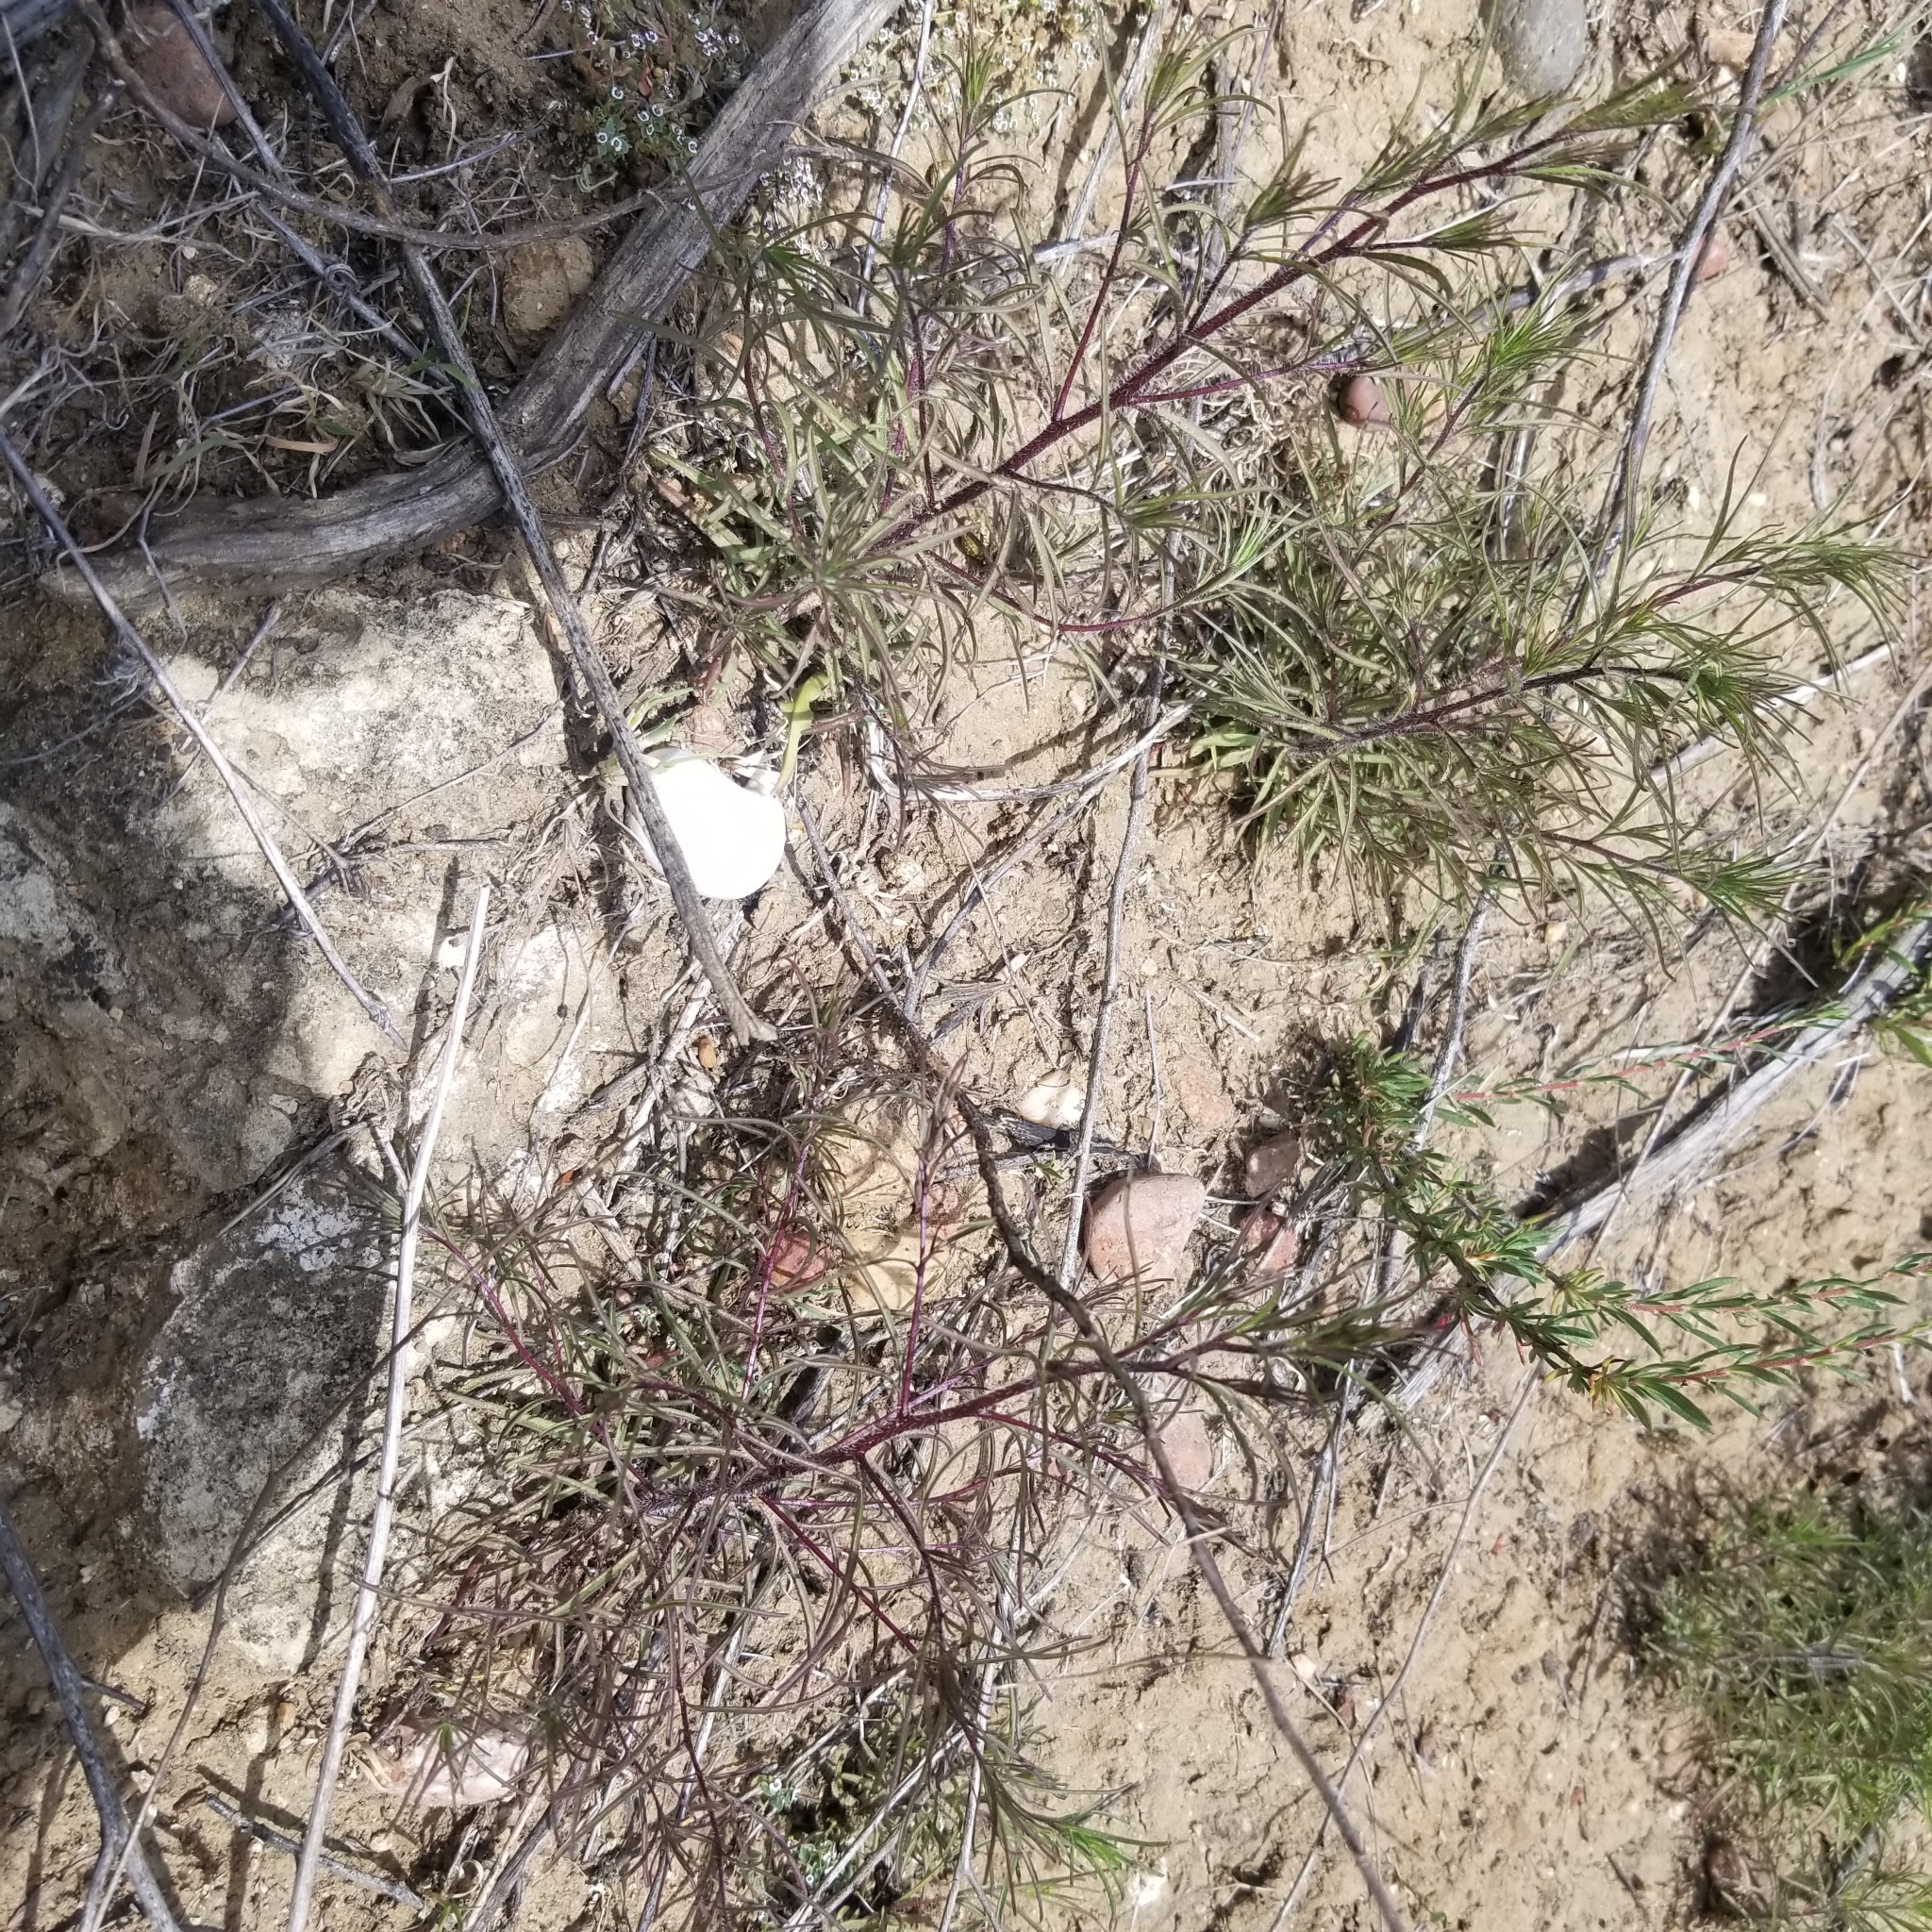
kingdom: Plantae
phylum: Tracheophyta
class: Magnoliopsida
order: Lamiales
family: Orobanchaceae
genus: Cordylanthus
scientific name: Cordylanthus rigidus
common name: Stiff-branch bird's-beak
